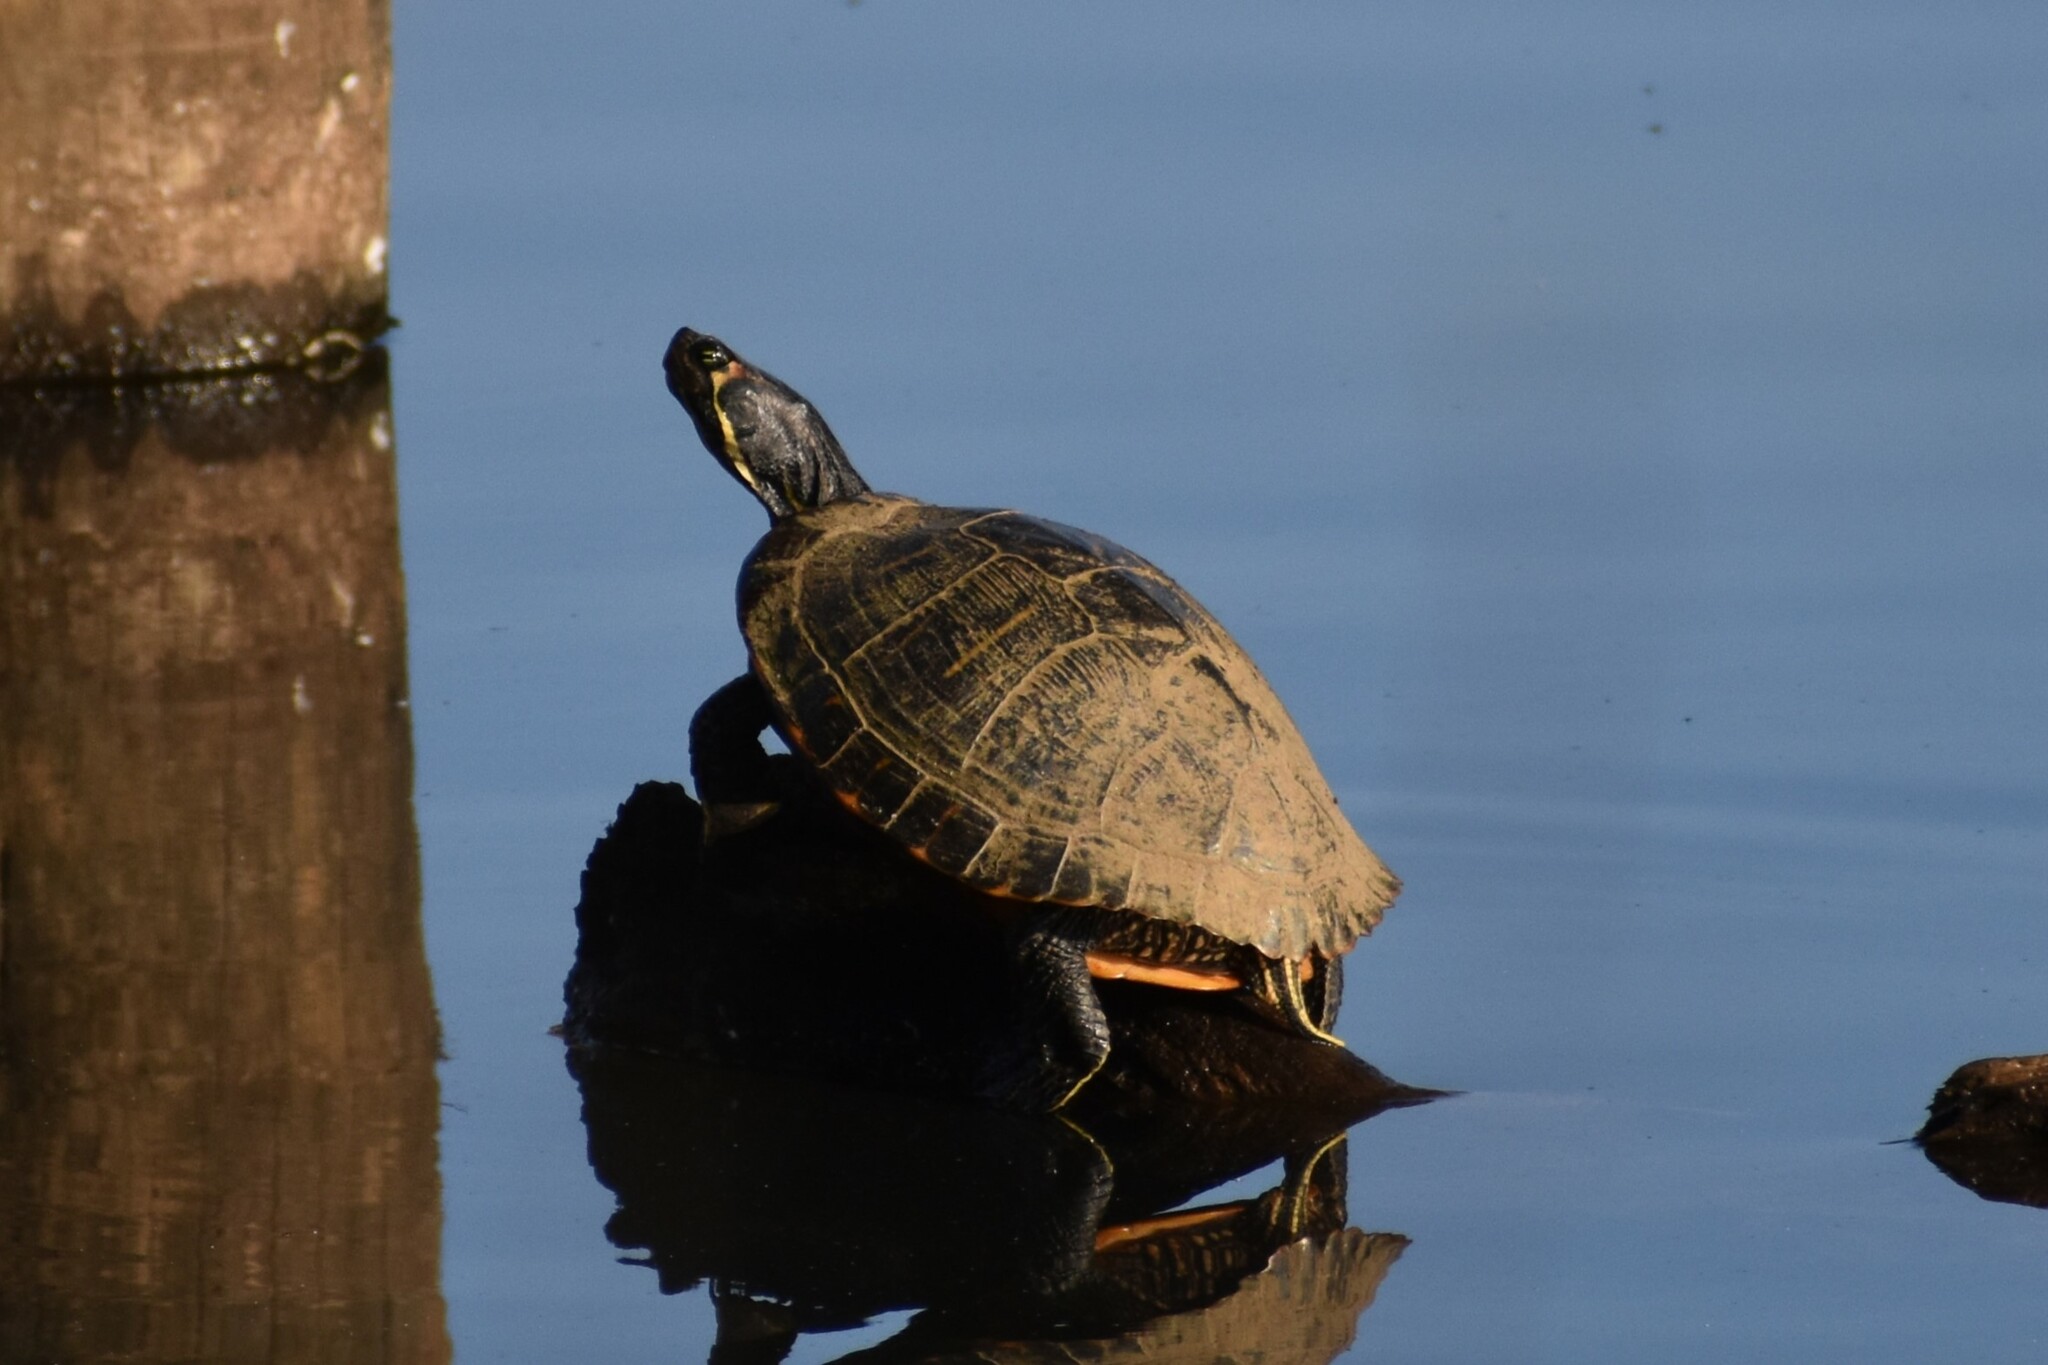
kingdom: Animalia
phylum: Chordata
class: Testudines
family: Emydidae
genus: Trachemys
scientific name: Trachemys scripta
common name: Slider
